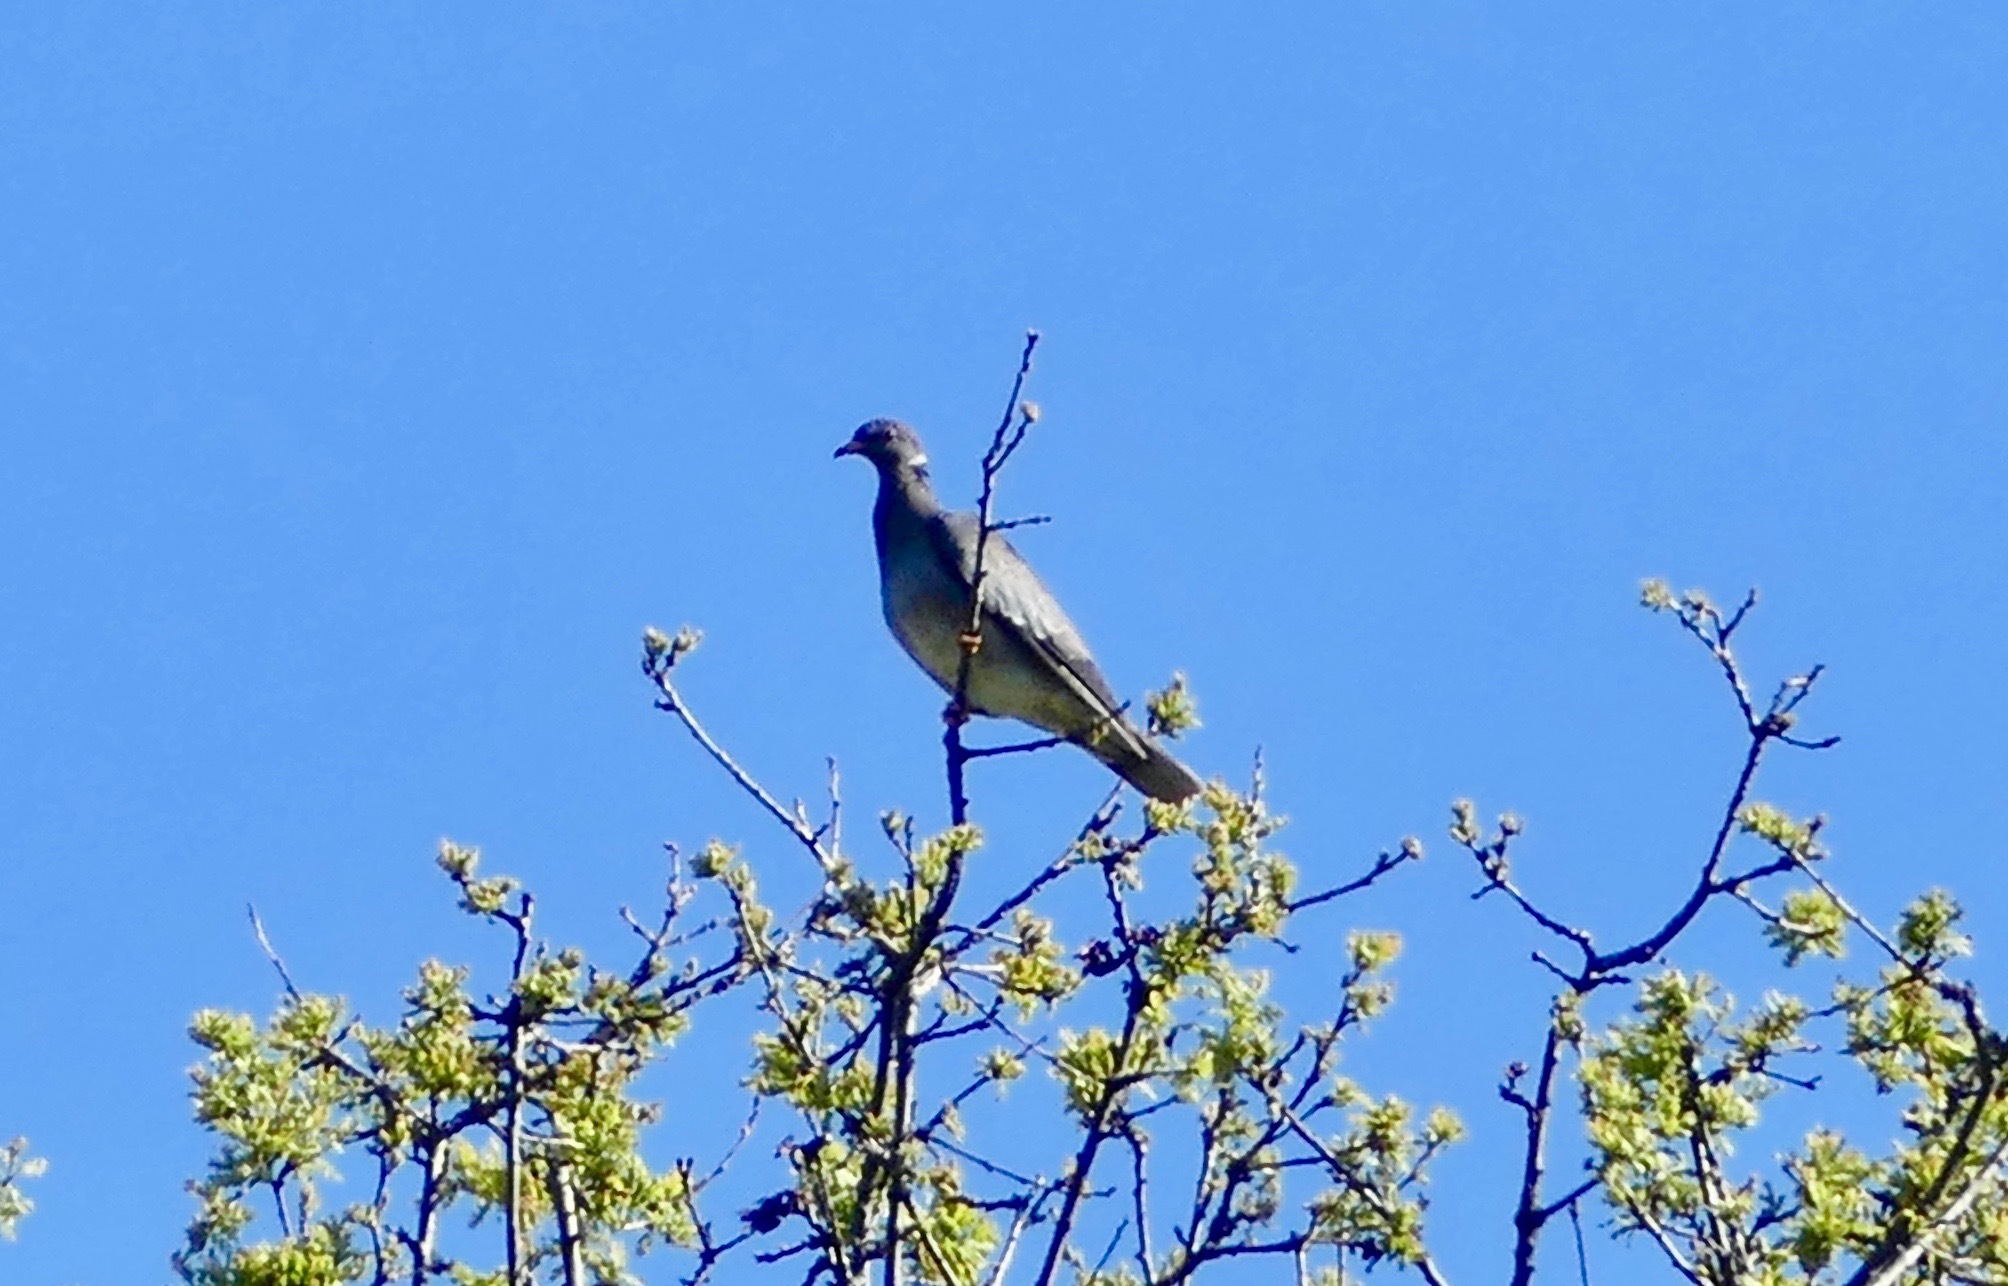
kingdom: Animalia
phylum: Chordata
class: Aves
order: Columbiformes
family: Columbidae
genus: Patagioenas
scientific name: Patagioenas fasciata
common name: Band-tailed pigeon
